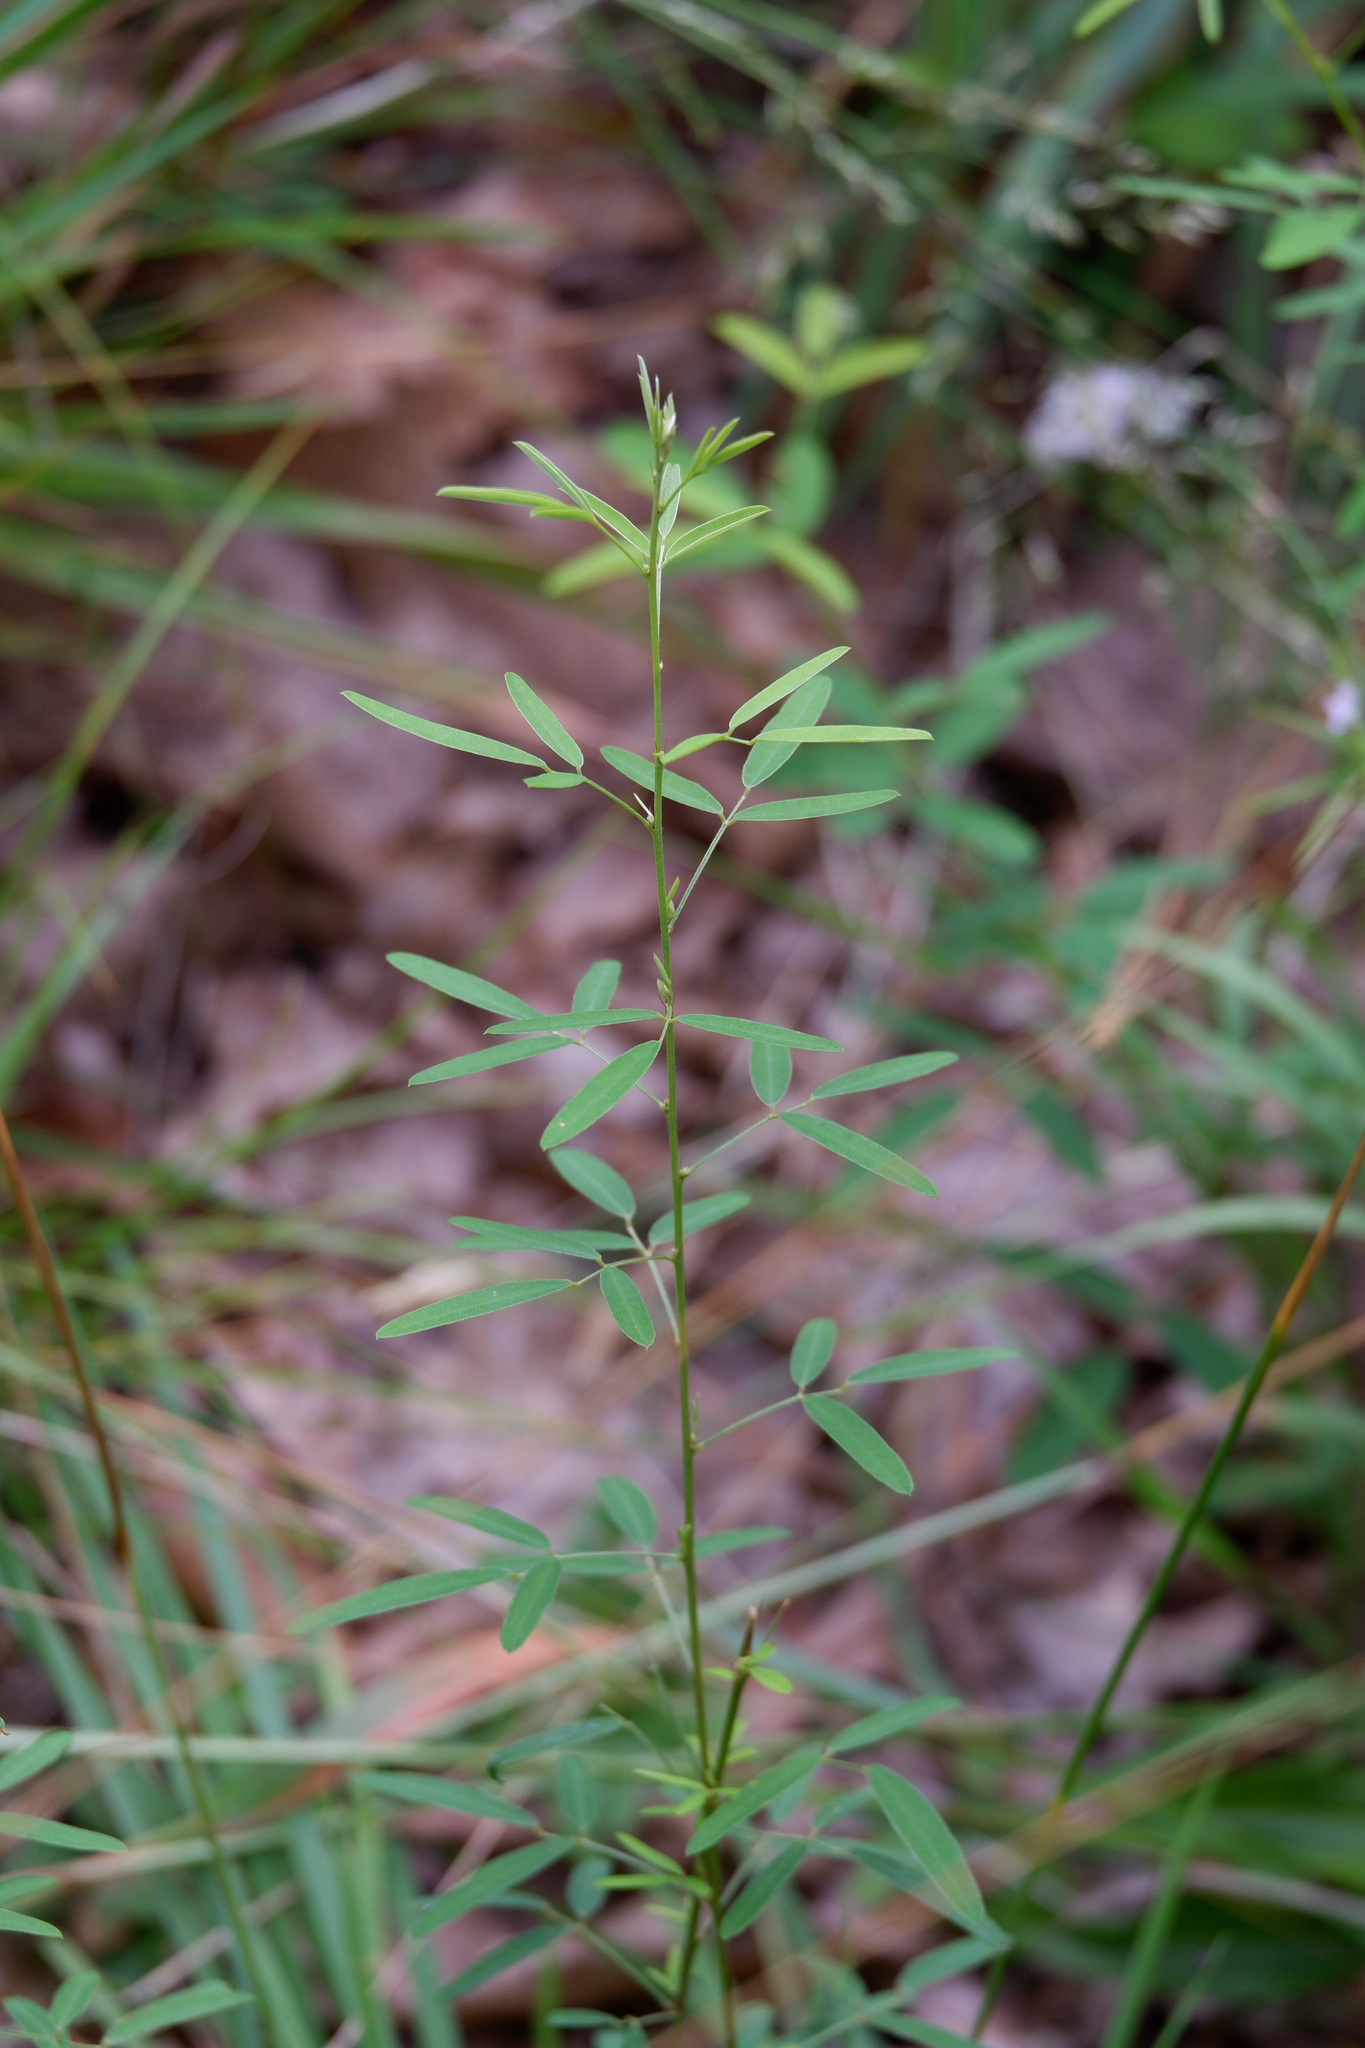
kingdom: Plantae
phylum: Tracheophyta
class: Magnoliopsida
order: Fabales
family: Fabaceae
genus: Lespedeza
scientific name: Lespedeza virginica
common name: Slender bush-clover
